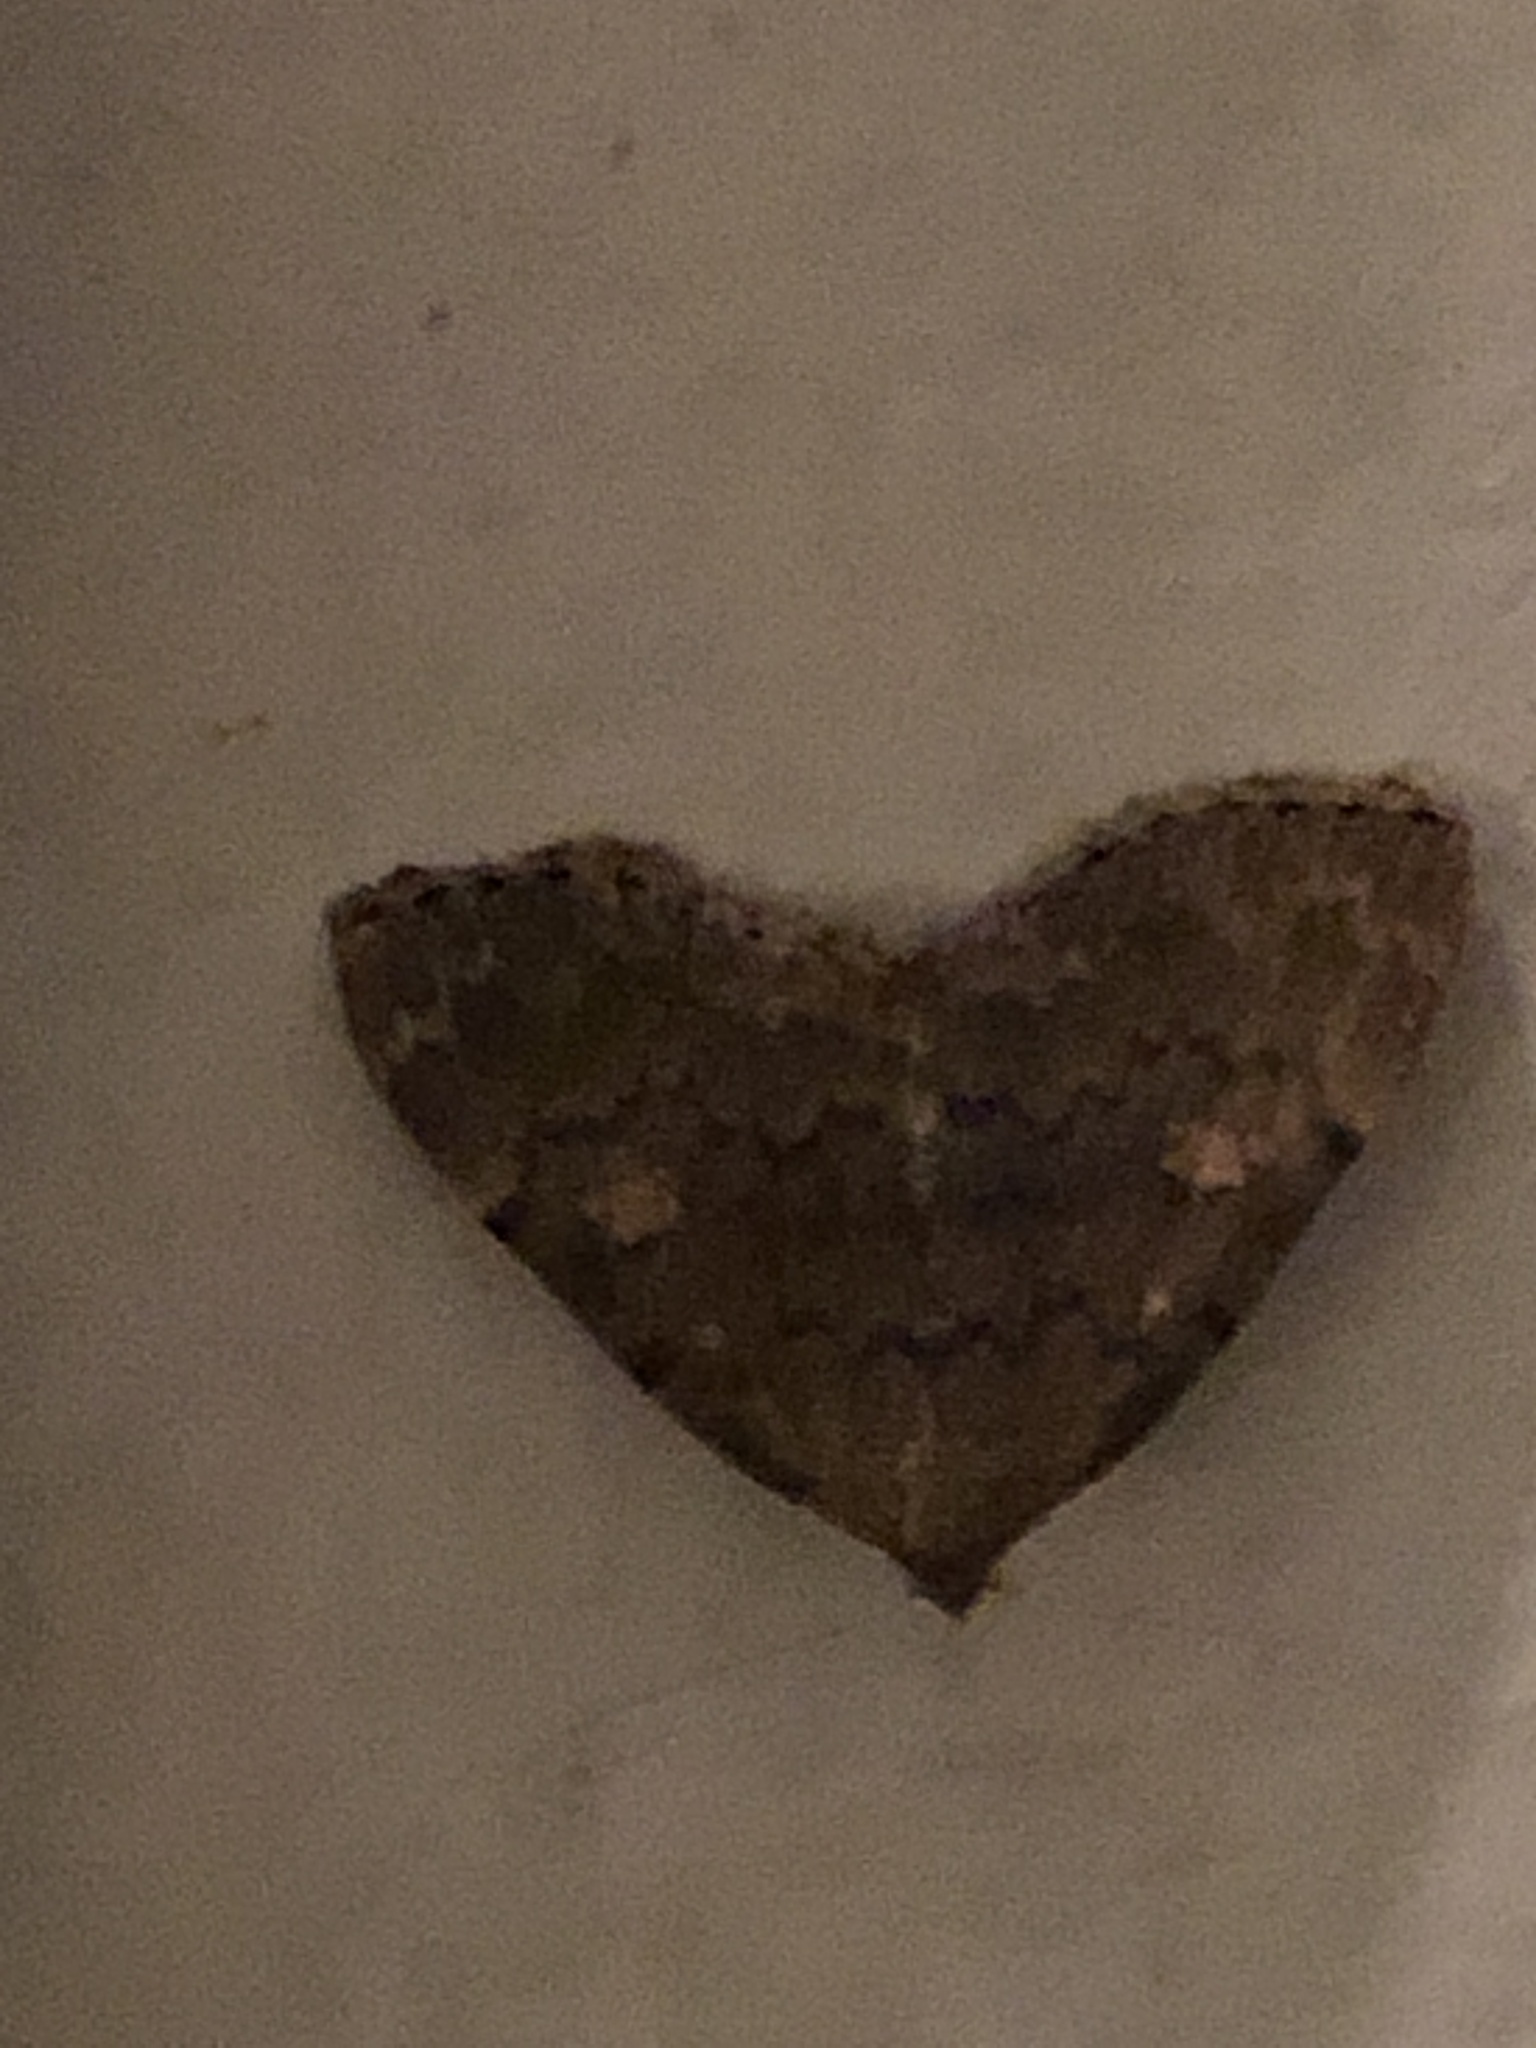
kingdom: Animalia
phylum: Arthropoda
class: Insecta
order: Lepidoptera
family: Erebidae
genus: Idia
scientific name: Idia aemula
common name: Common idia moth
